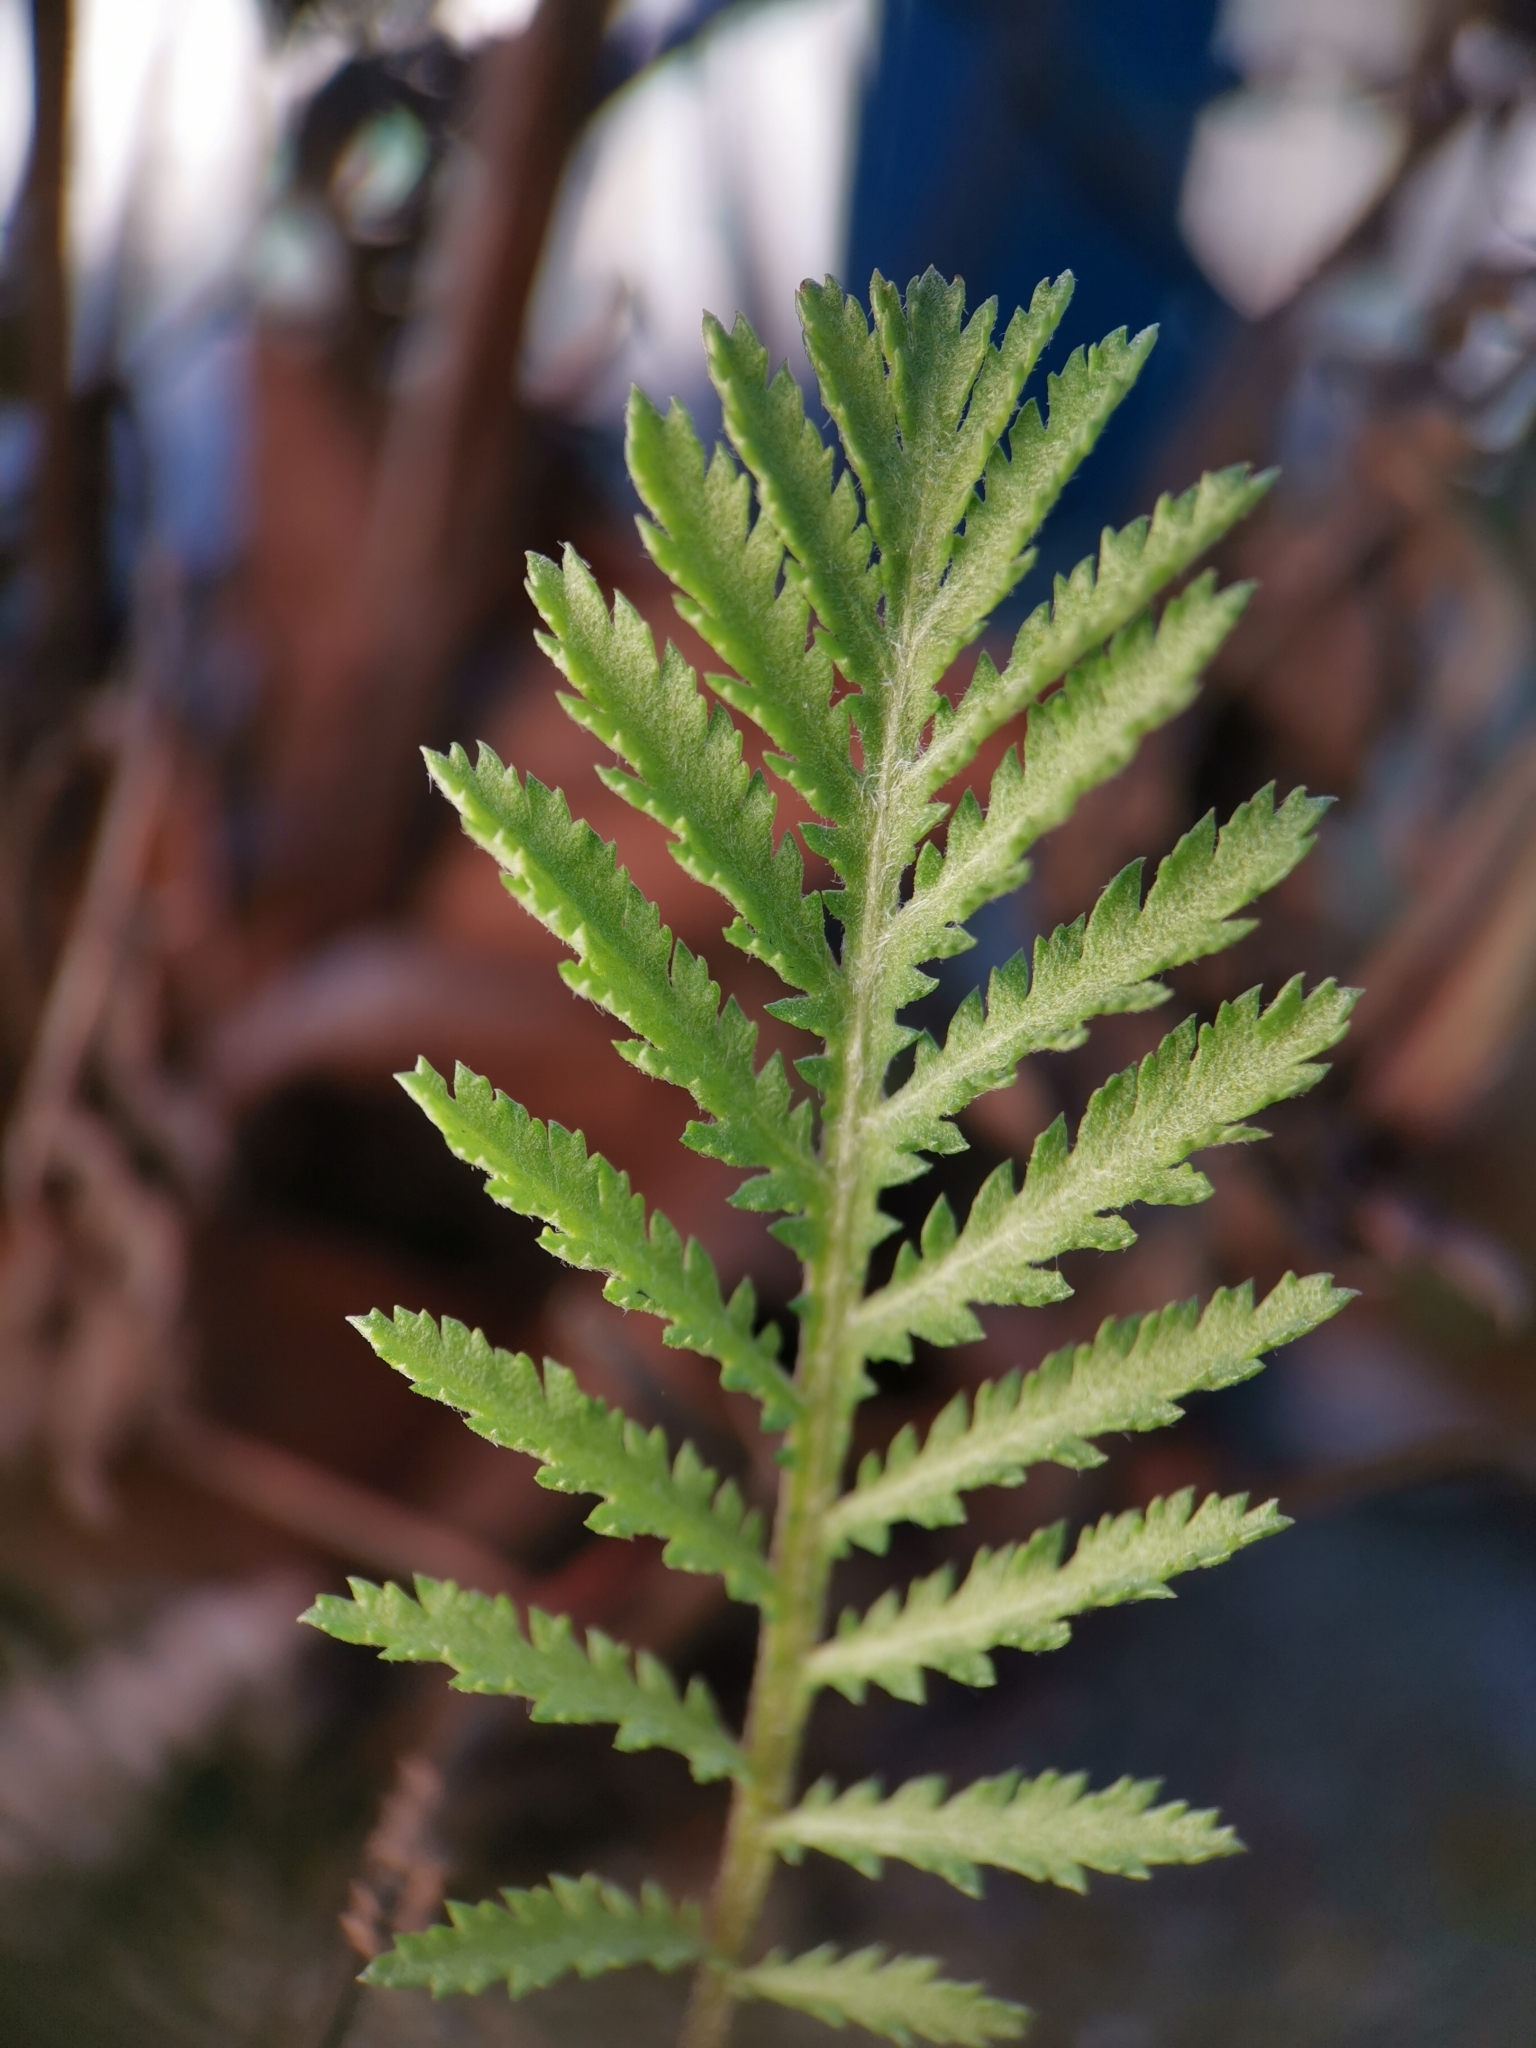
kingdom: Plantae
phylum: Tracheophyta
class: Magnoliopsida
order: Asterales
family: Asteraceae
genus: Tanacetum
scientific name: Tanacetum vulgare
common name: Common tansy
